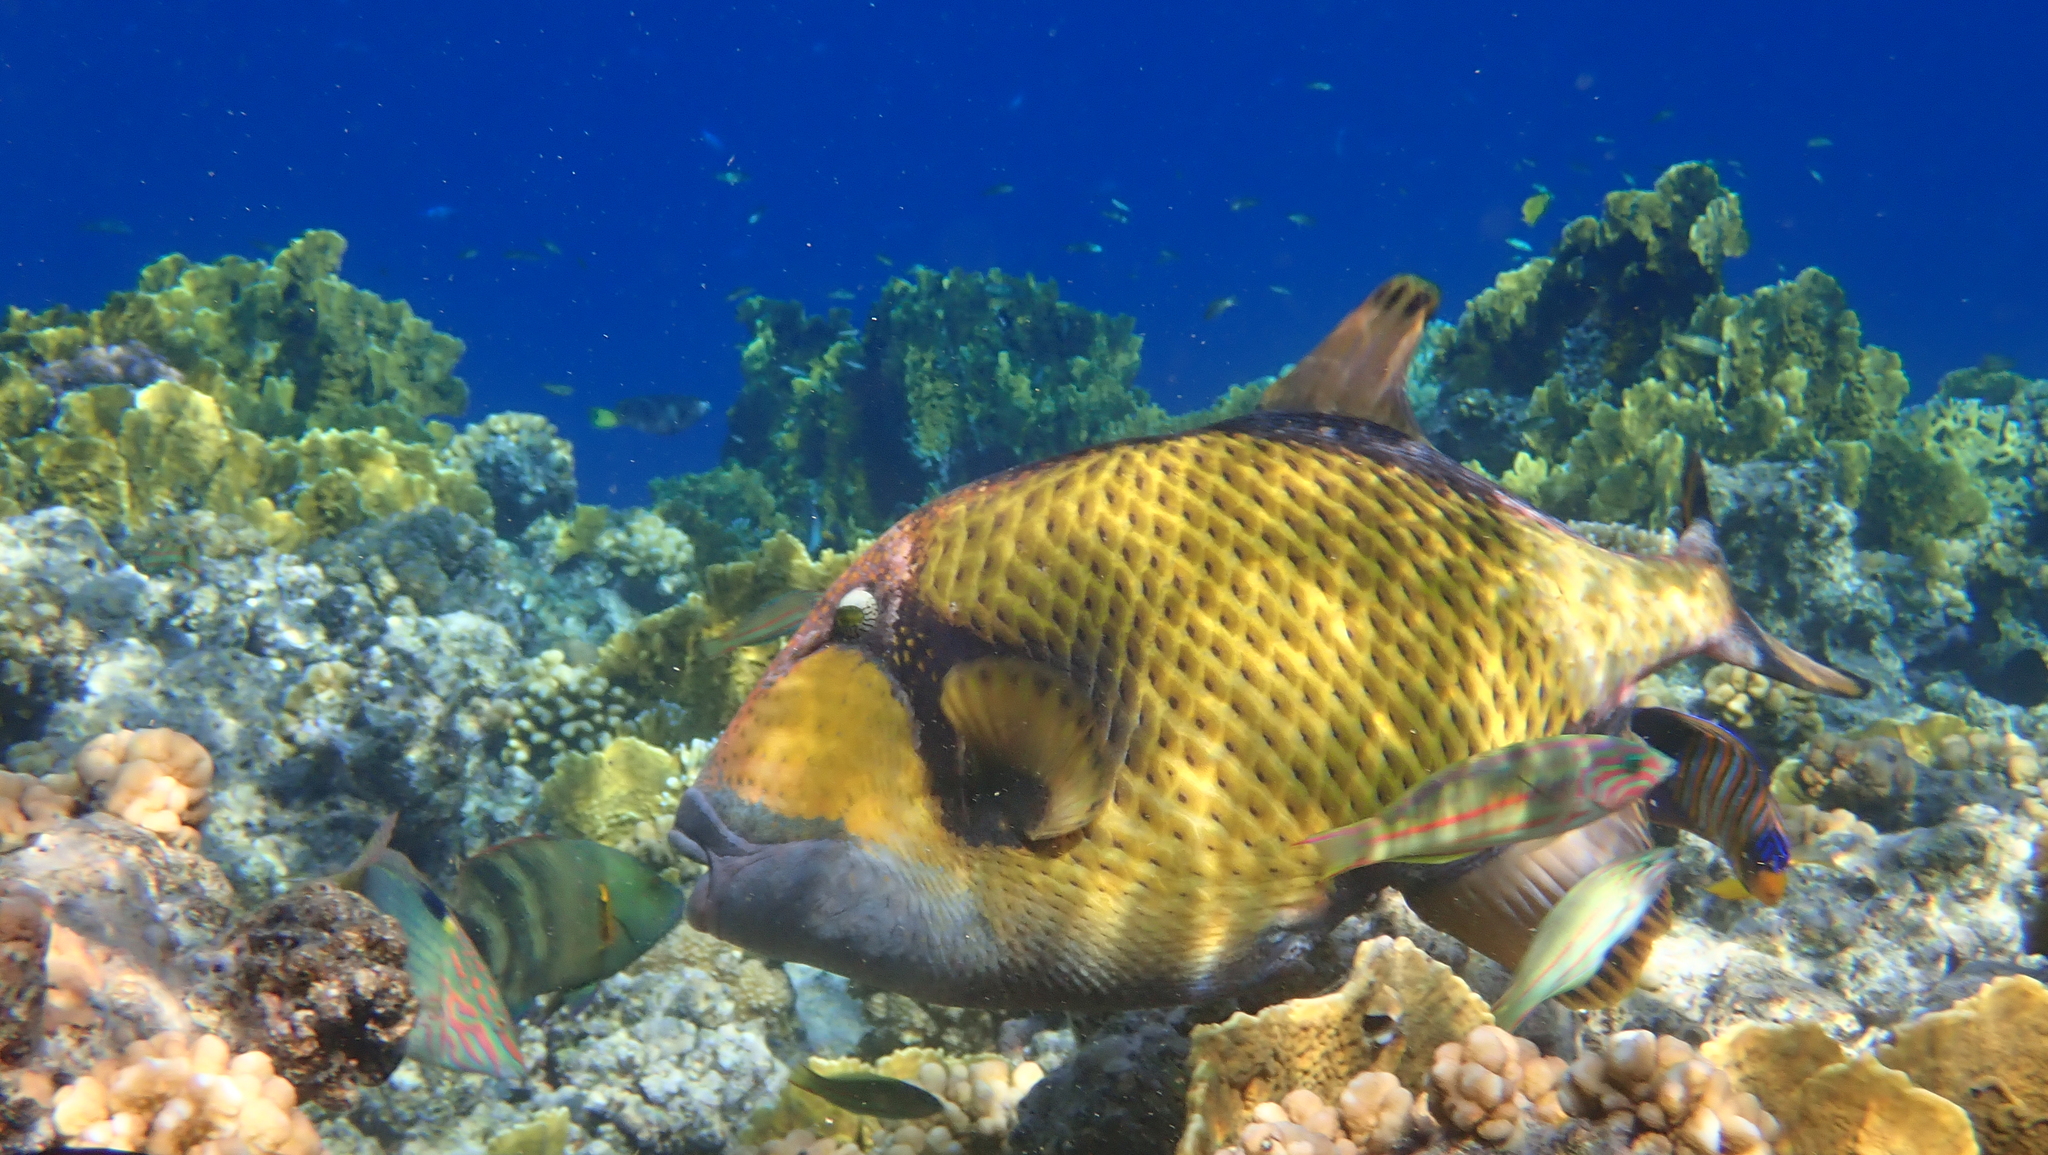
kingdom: Animalia
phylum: Chordata
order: Tetraodontiformes
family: Balistidae
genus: Balistoides
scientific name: Balistoides viridescens
